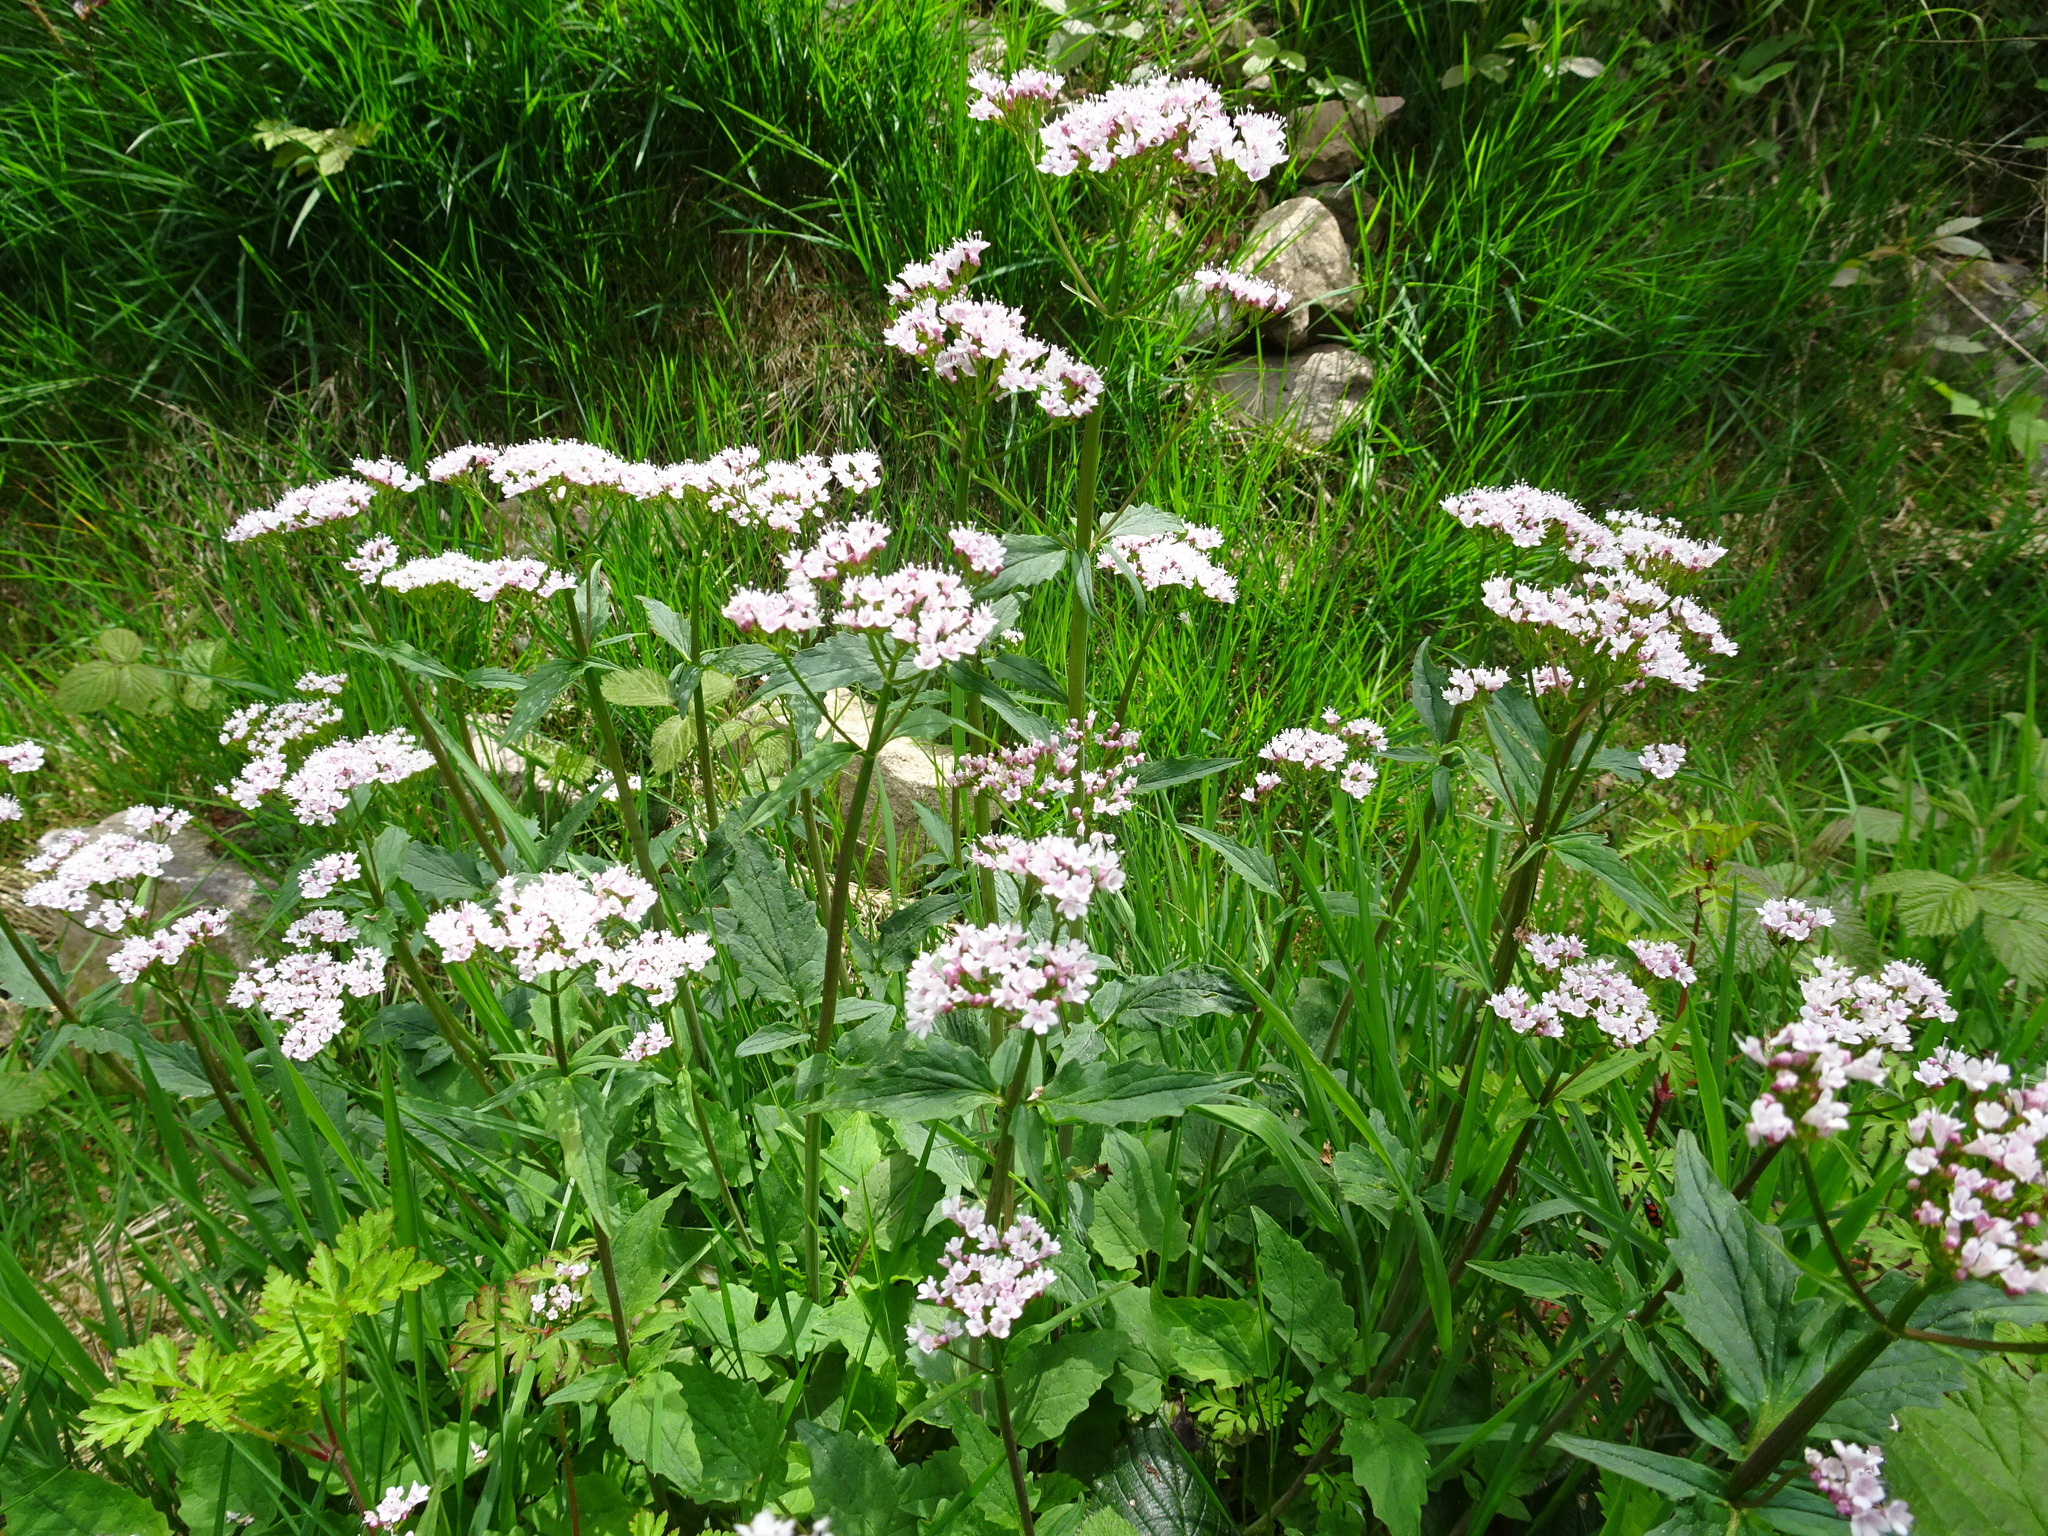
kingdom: Plantae
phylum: Tracheophyta
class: Magnoliopsida
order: Dipsacales
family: Caprifoliaceae
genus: Valeriana
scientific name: Valeriana tripteris
